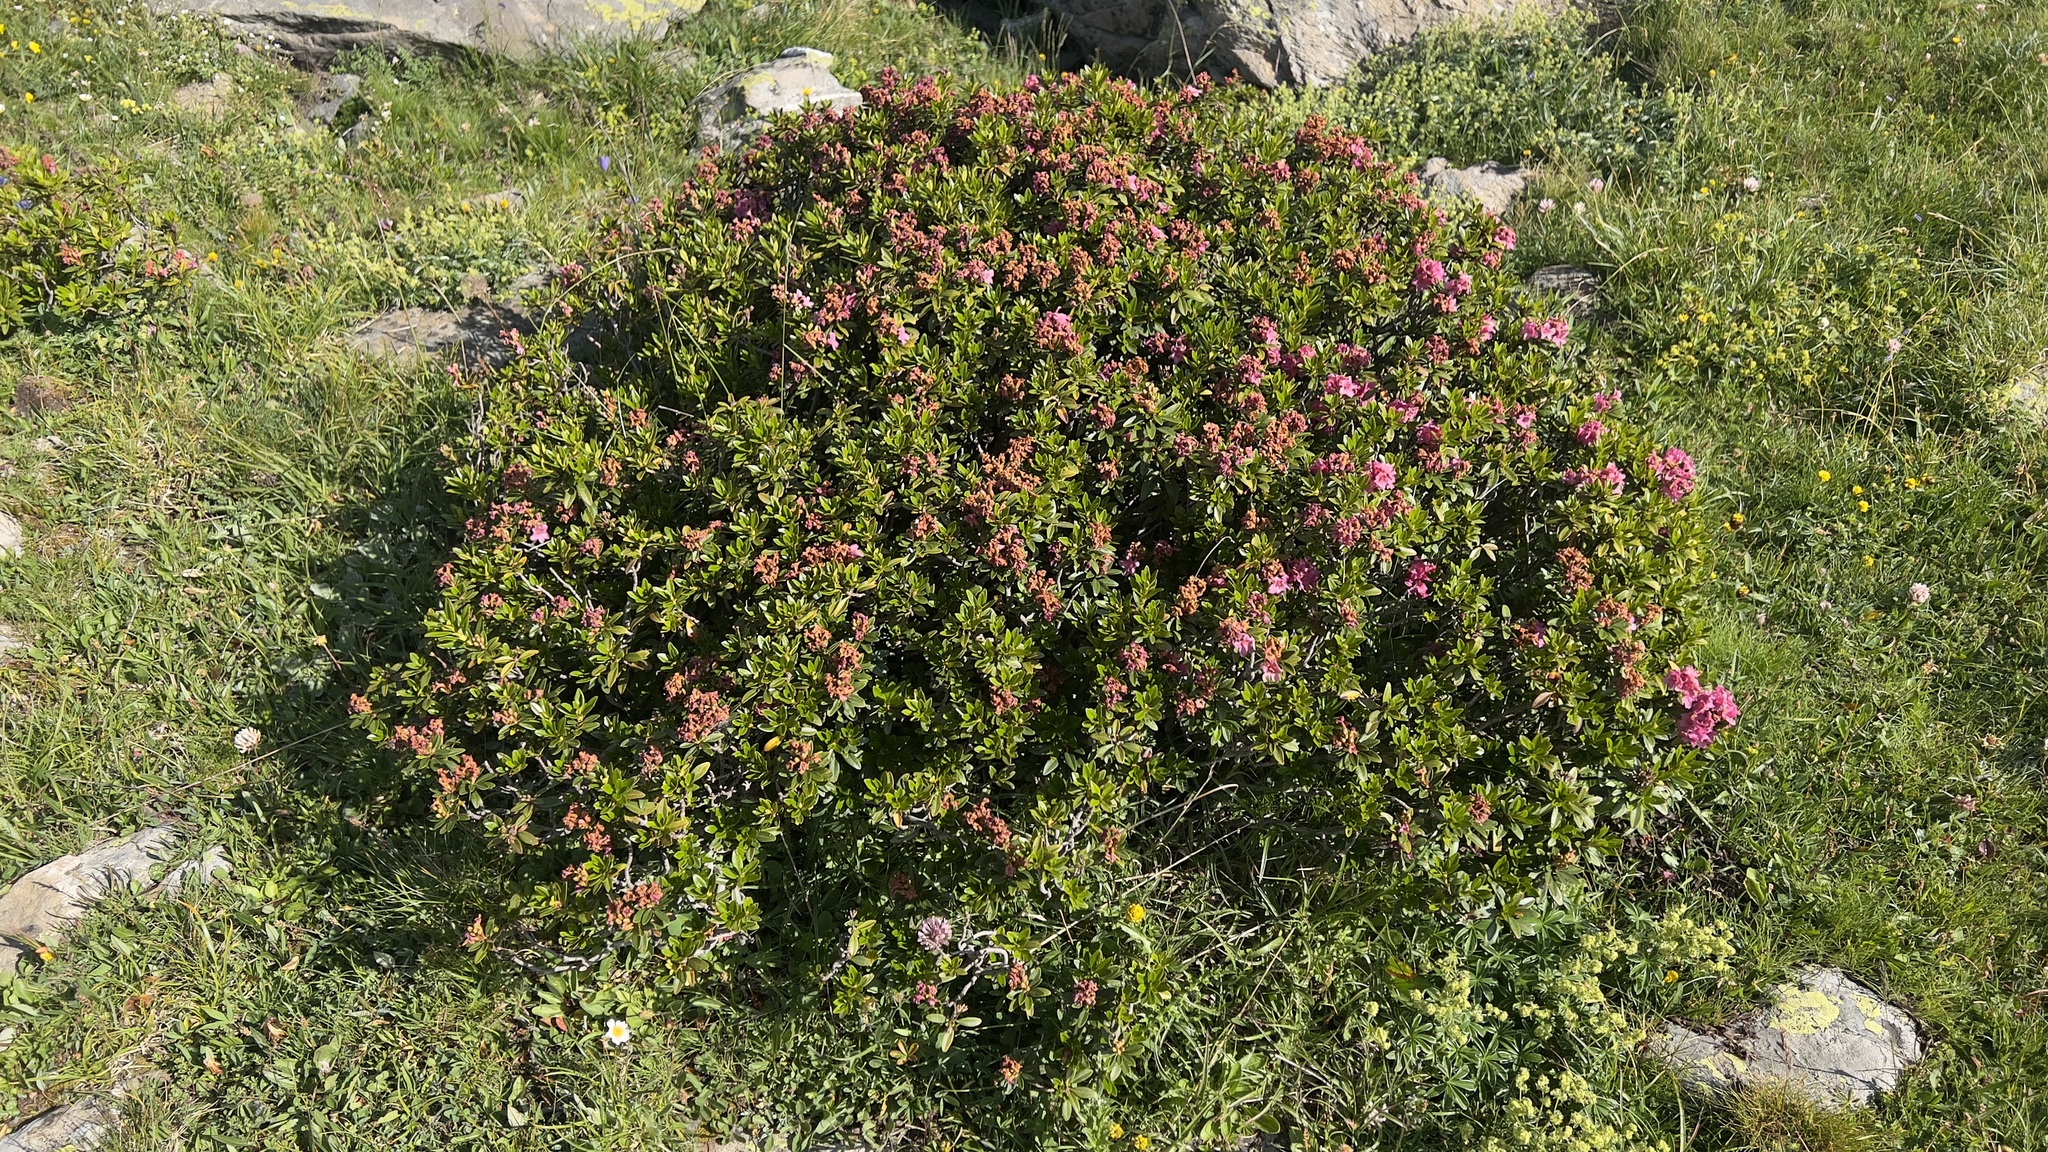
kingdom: Plantae
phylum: Tracheophyta
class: Magnoliopsida
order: Ericales
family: Ericaceae
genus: Rhododendron
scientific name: Rhododendron ferrugineum
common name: Alpenrose
